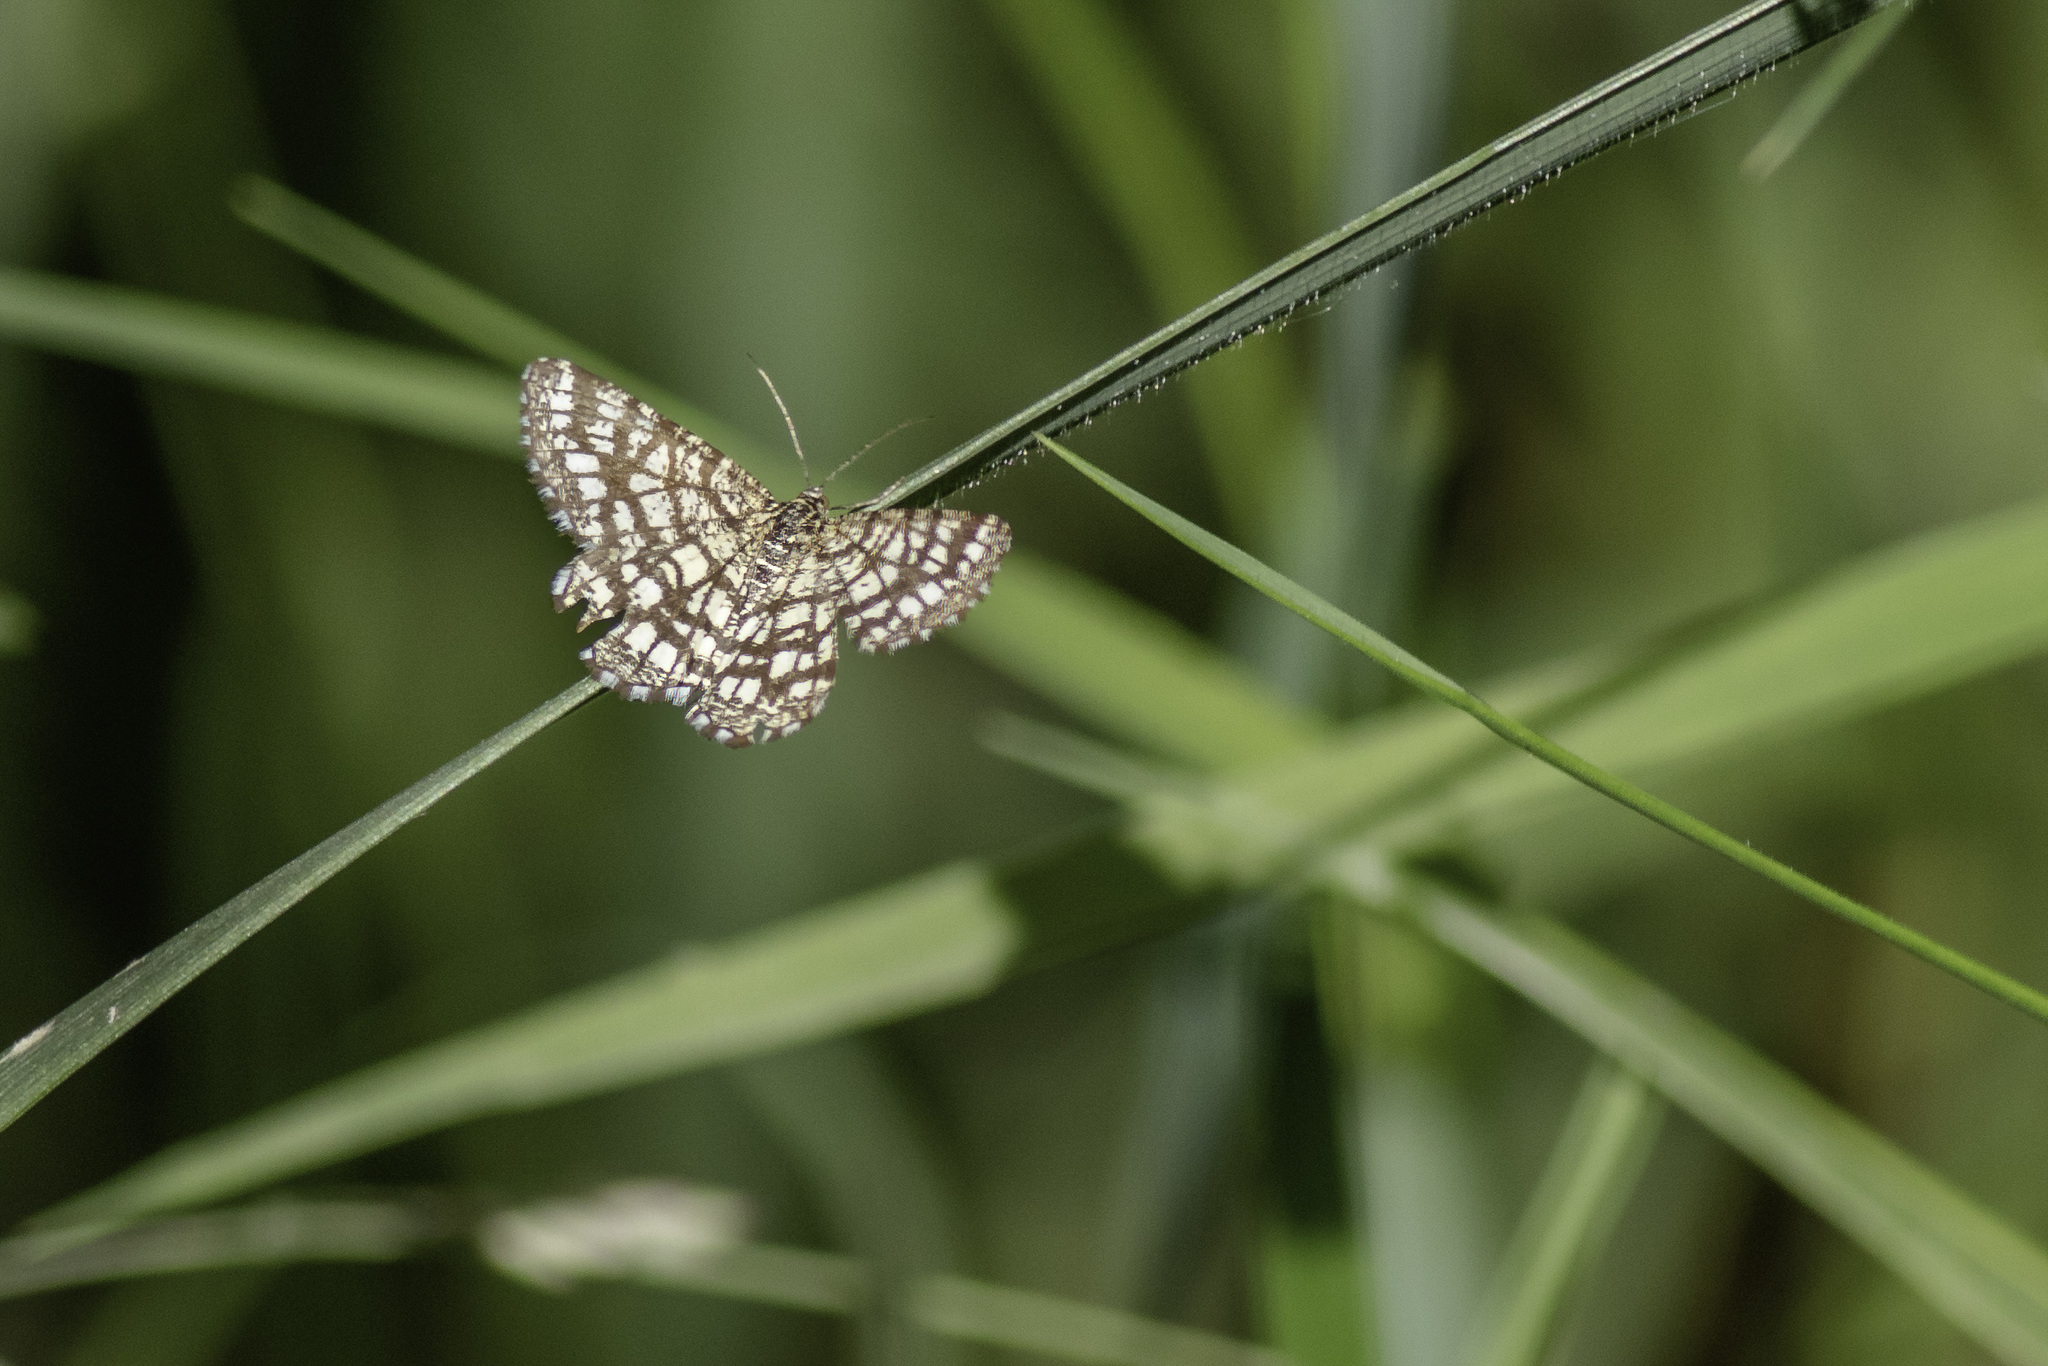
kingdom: Animalia
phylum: Arthropoda
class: Insecta
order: Lepidoptera
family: Geometridae
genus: Chiasmia
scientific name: Chiasmia clathrata
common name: Latticed heath
